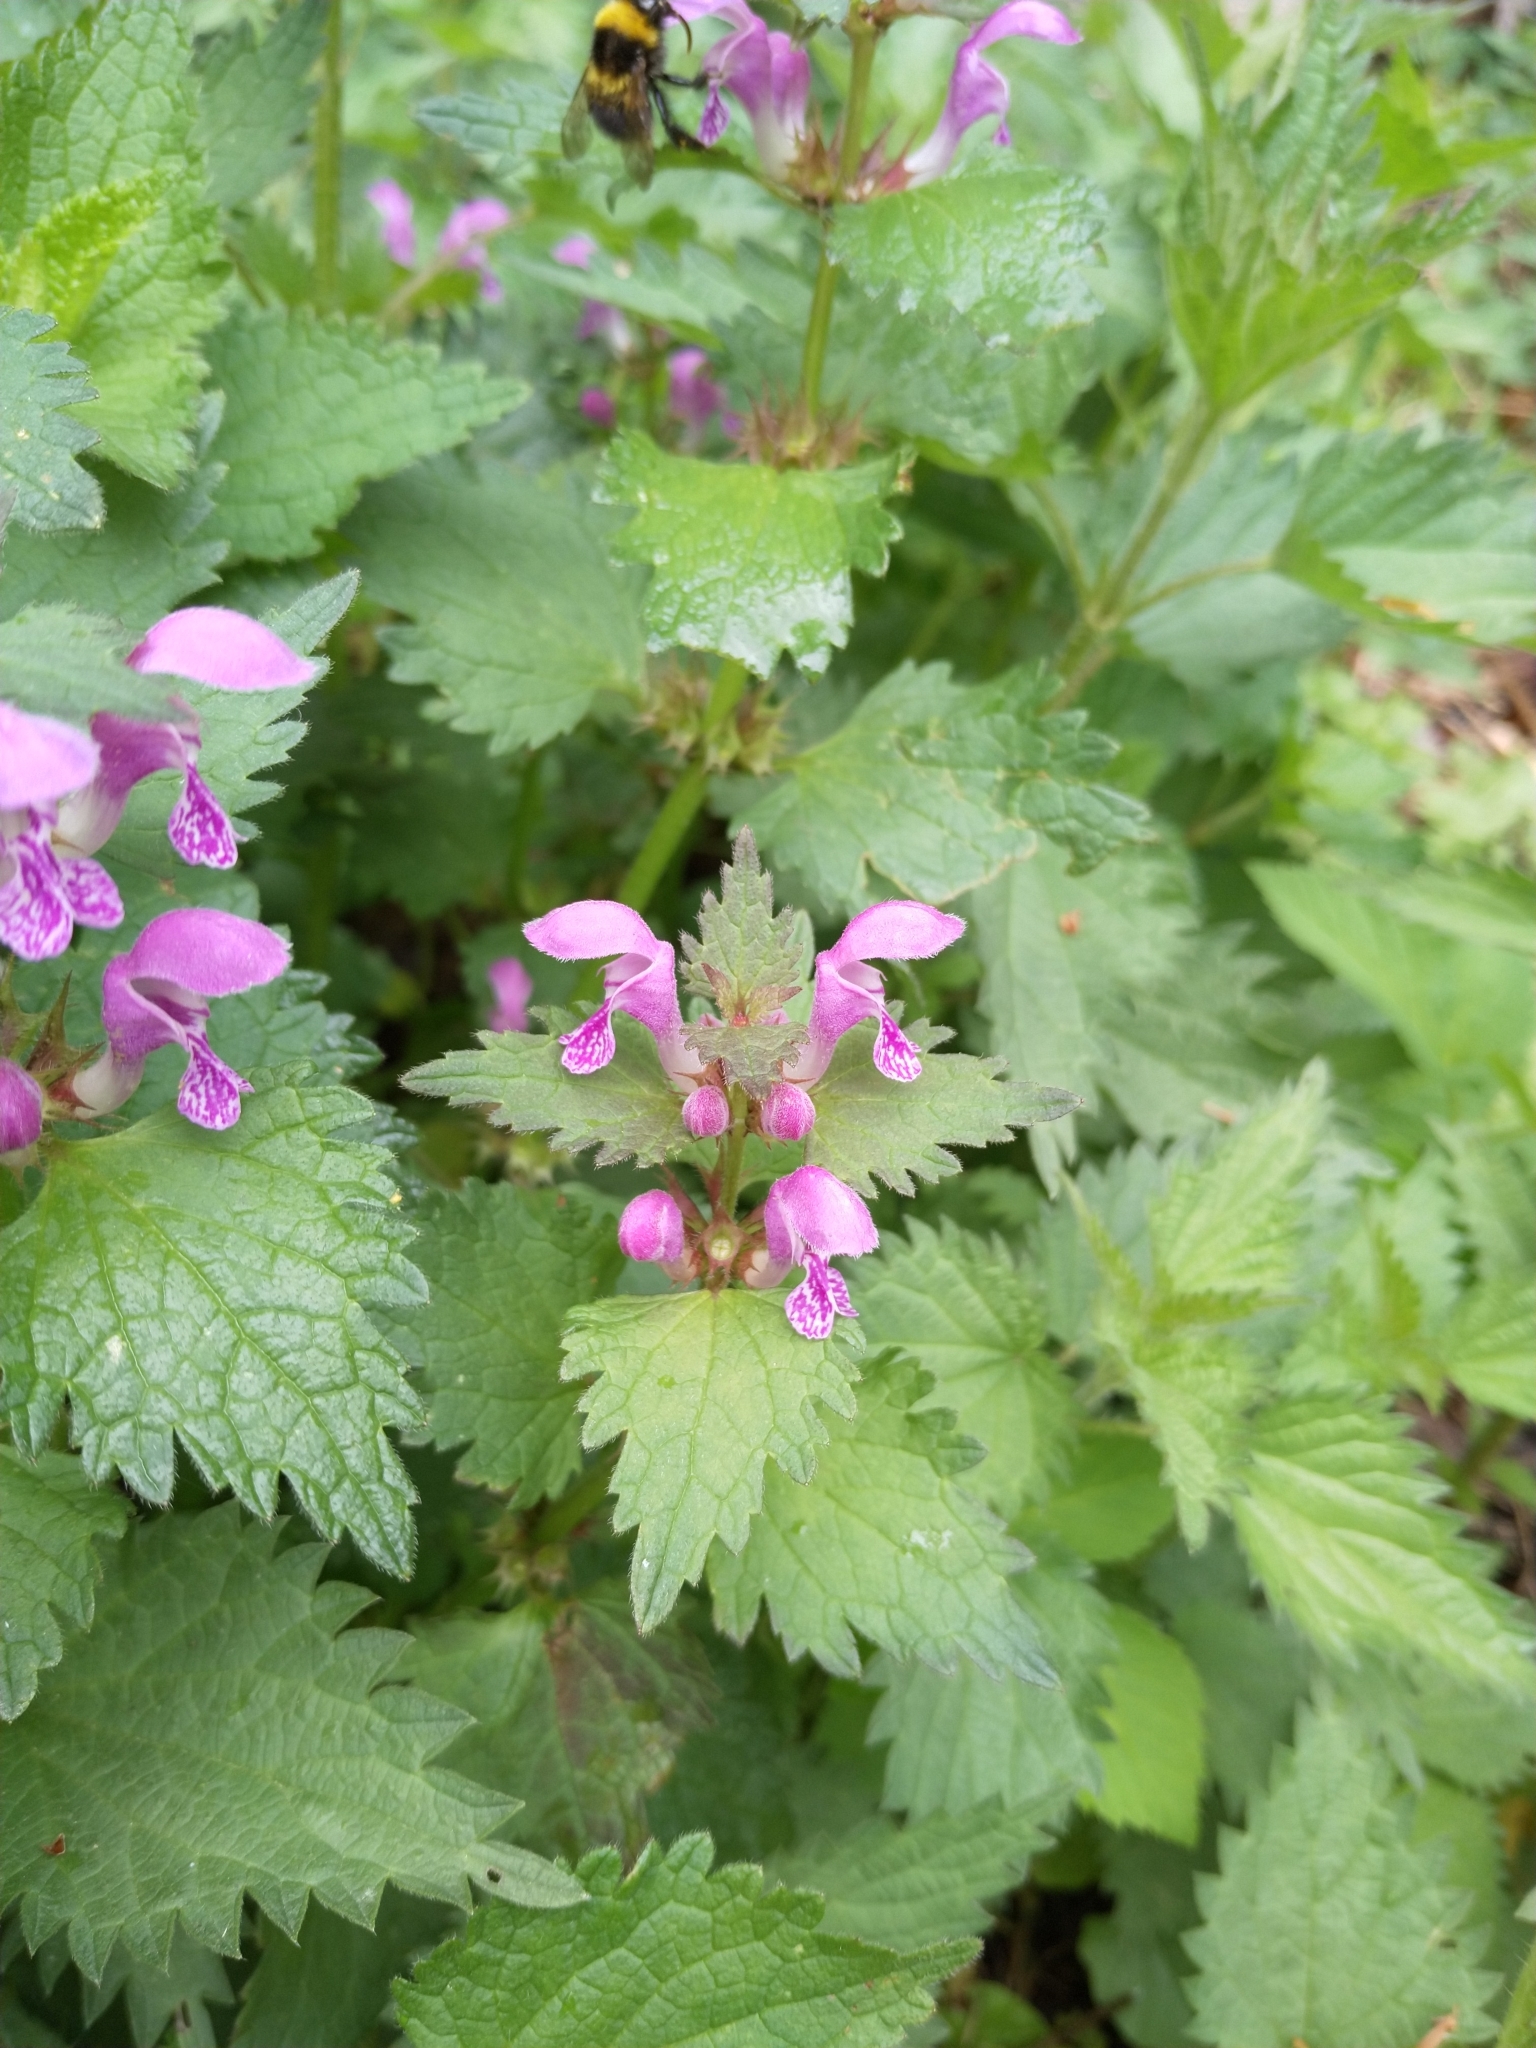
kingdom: Plantae
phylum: Tracheophyta
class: Magnoliopsida
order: Lamiales
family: Lamiaceae
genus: Lamium
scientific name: Lamium maculatum
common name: Spotted dead-nettle
